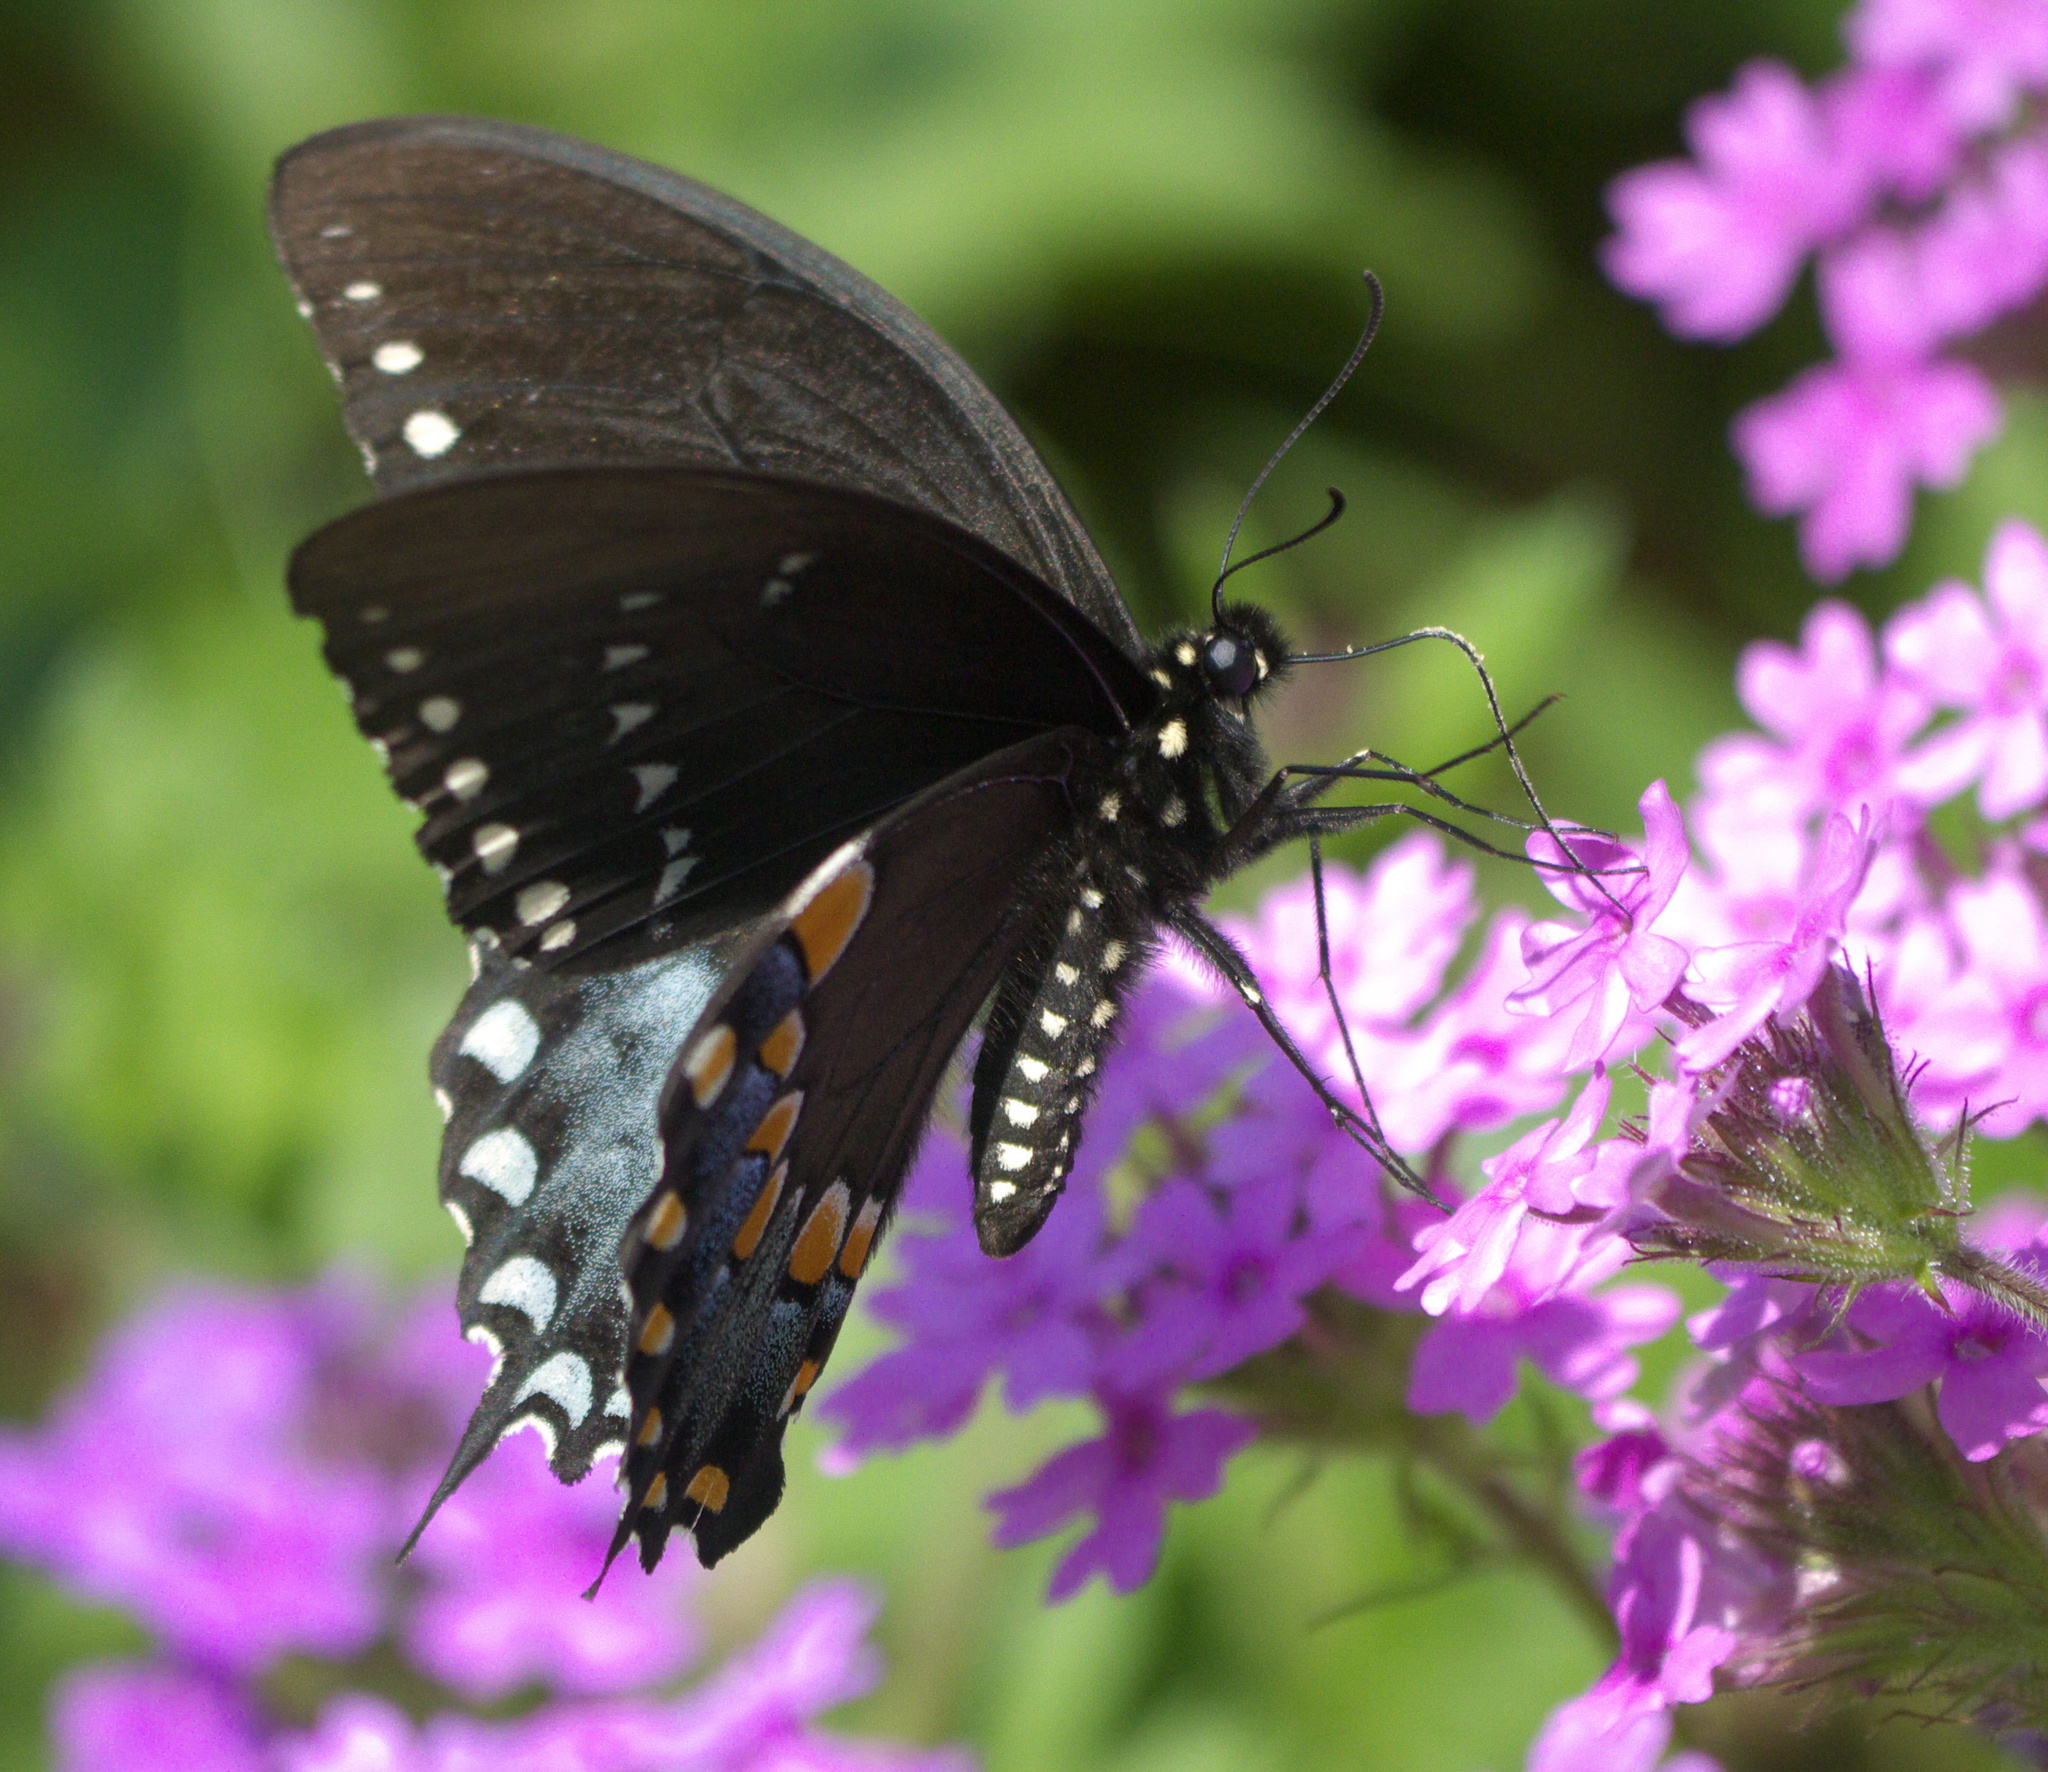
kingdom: Animalia
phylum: Arthropoda
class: Insecta
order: Lepidoptera
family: Papilionidae
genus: Papilio
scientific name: Papilio troilus
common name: Spicebush swallowtail
